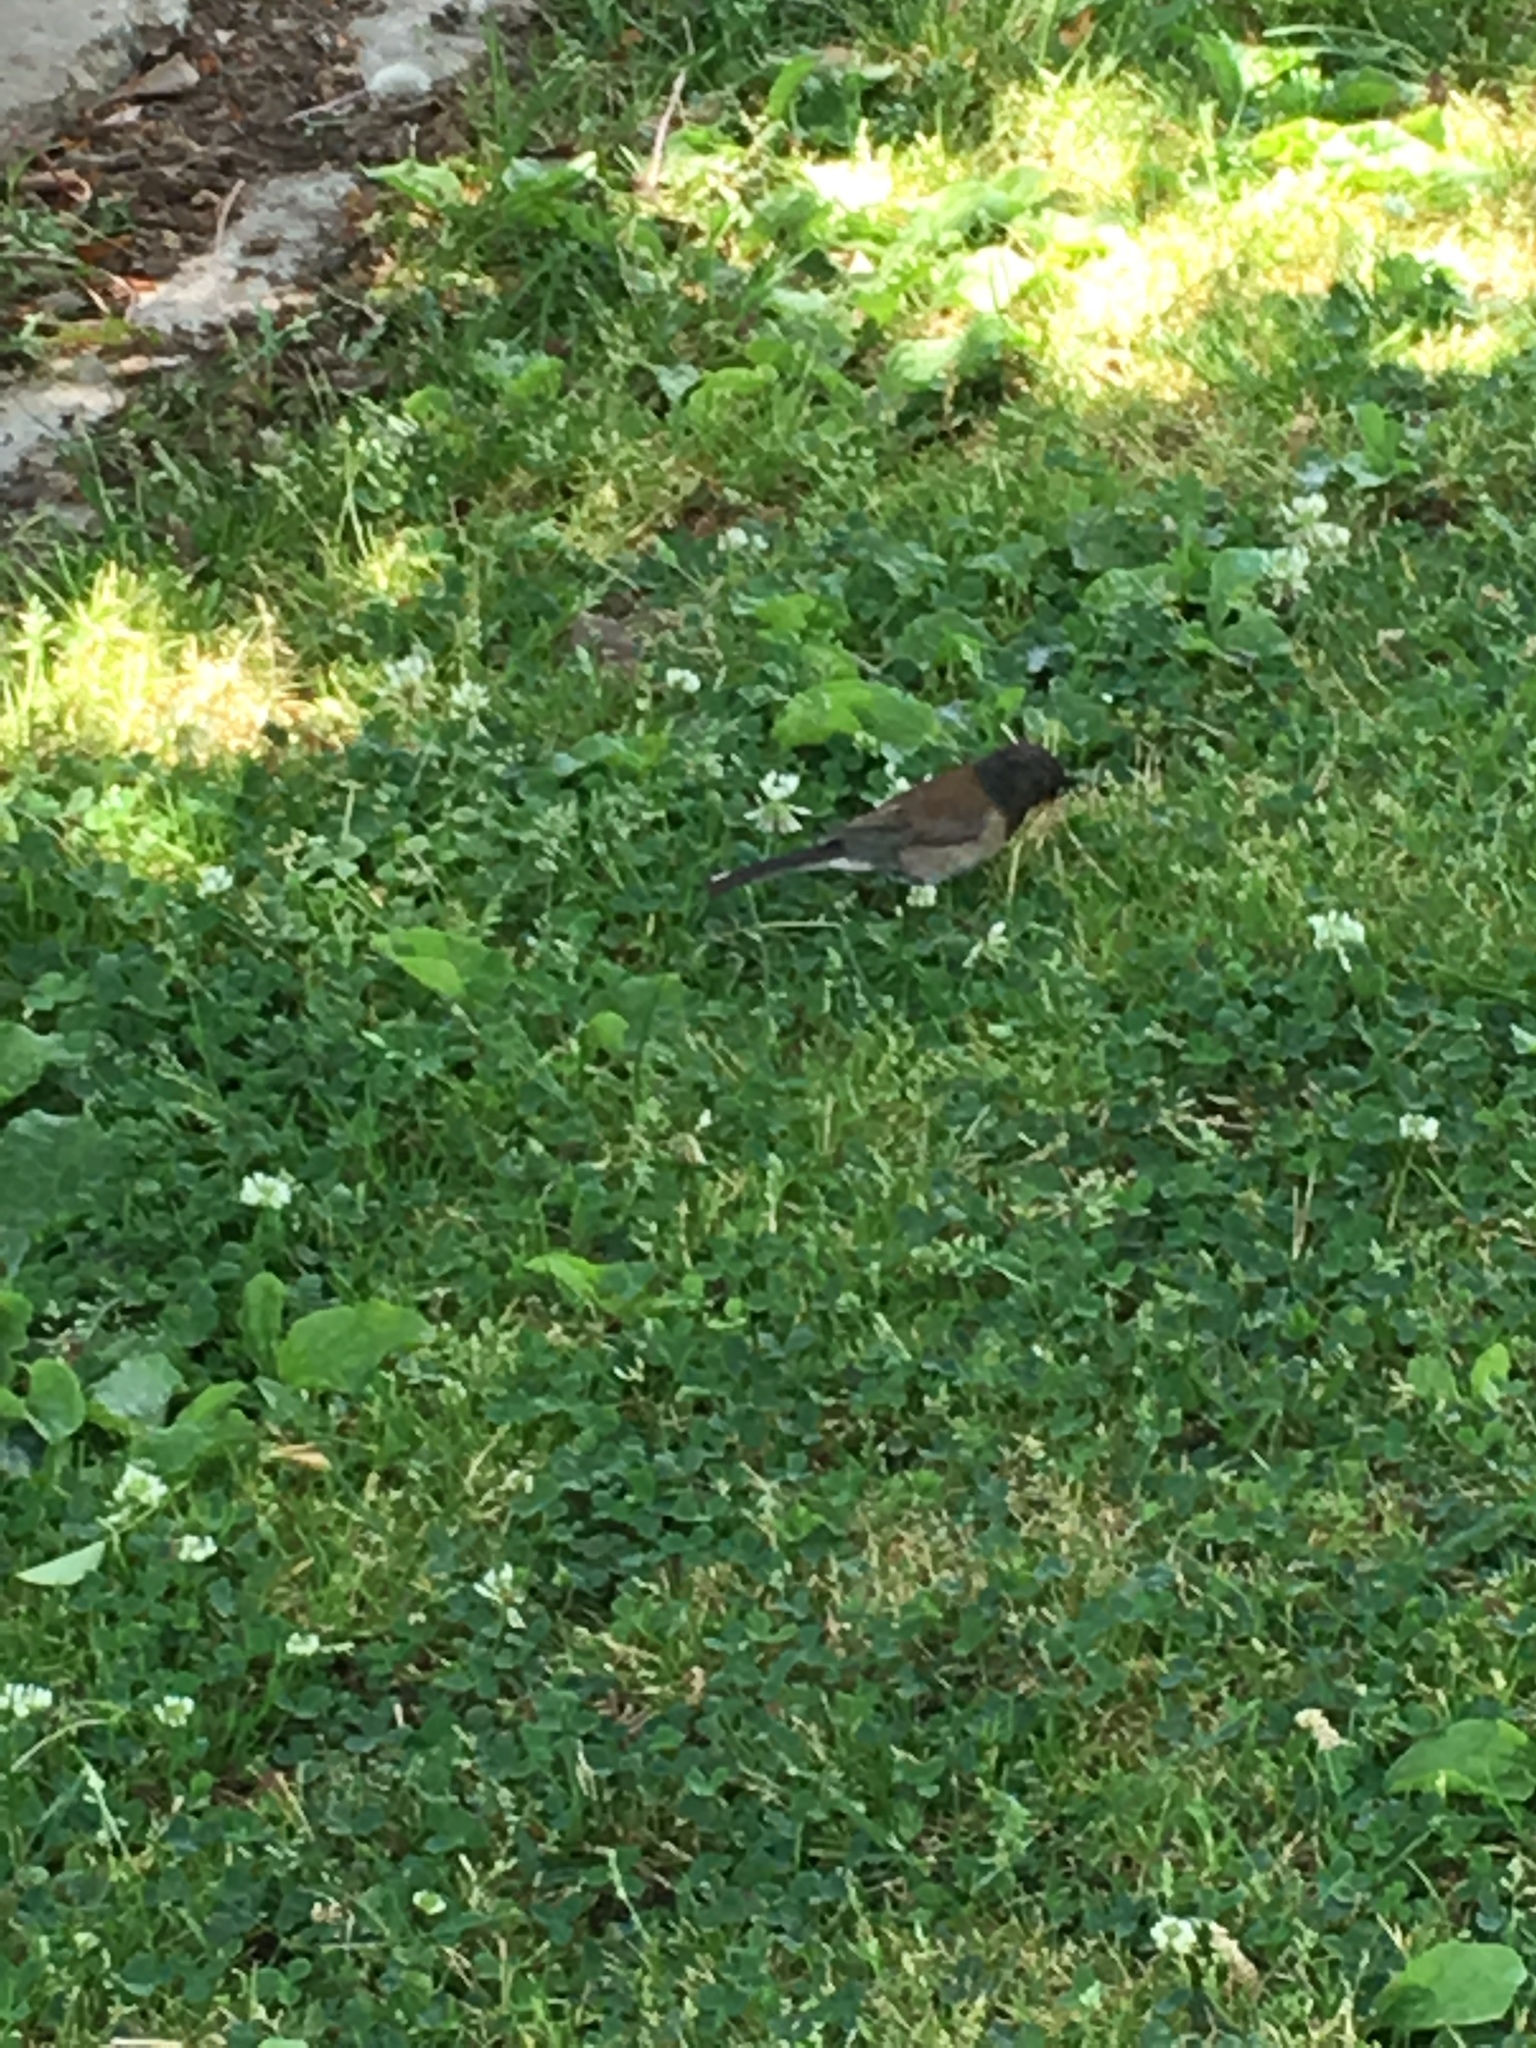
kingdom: Animalia
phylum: Chordata
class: Aves
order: Passeriformes
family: Passerellidae
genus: Junco
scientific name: Junco hyemalis
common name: Dark-eyed junco
